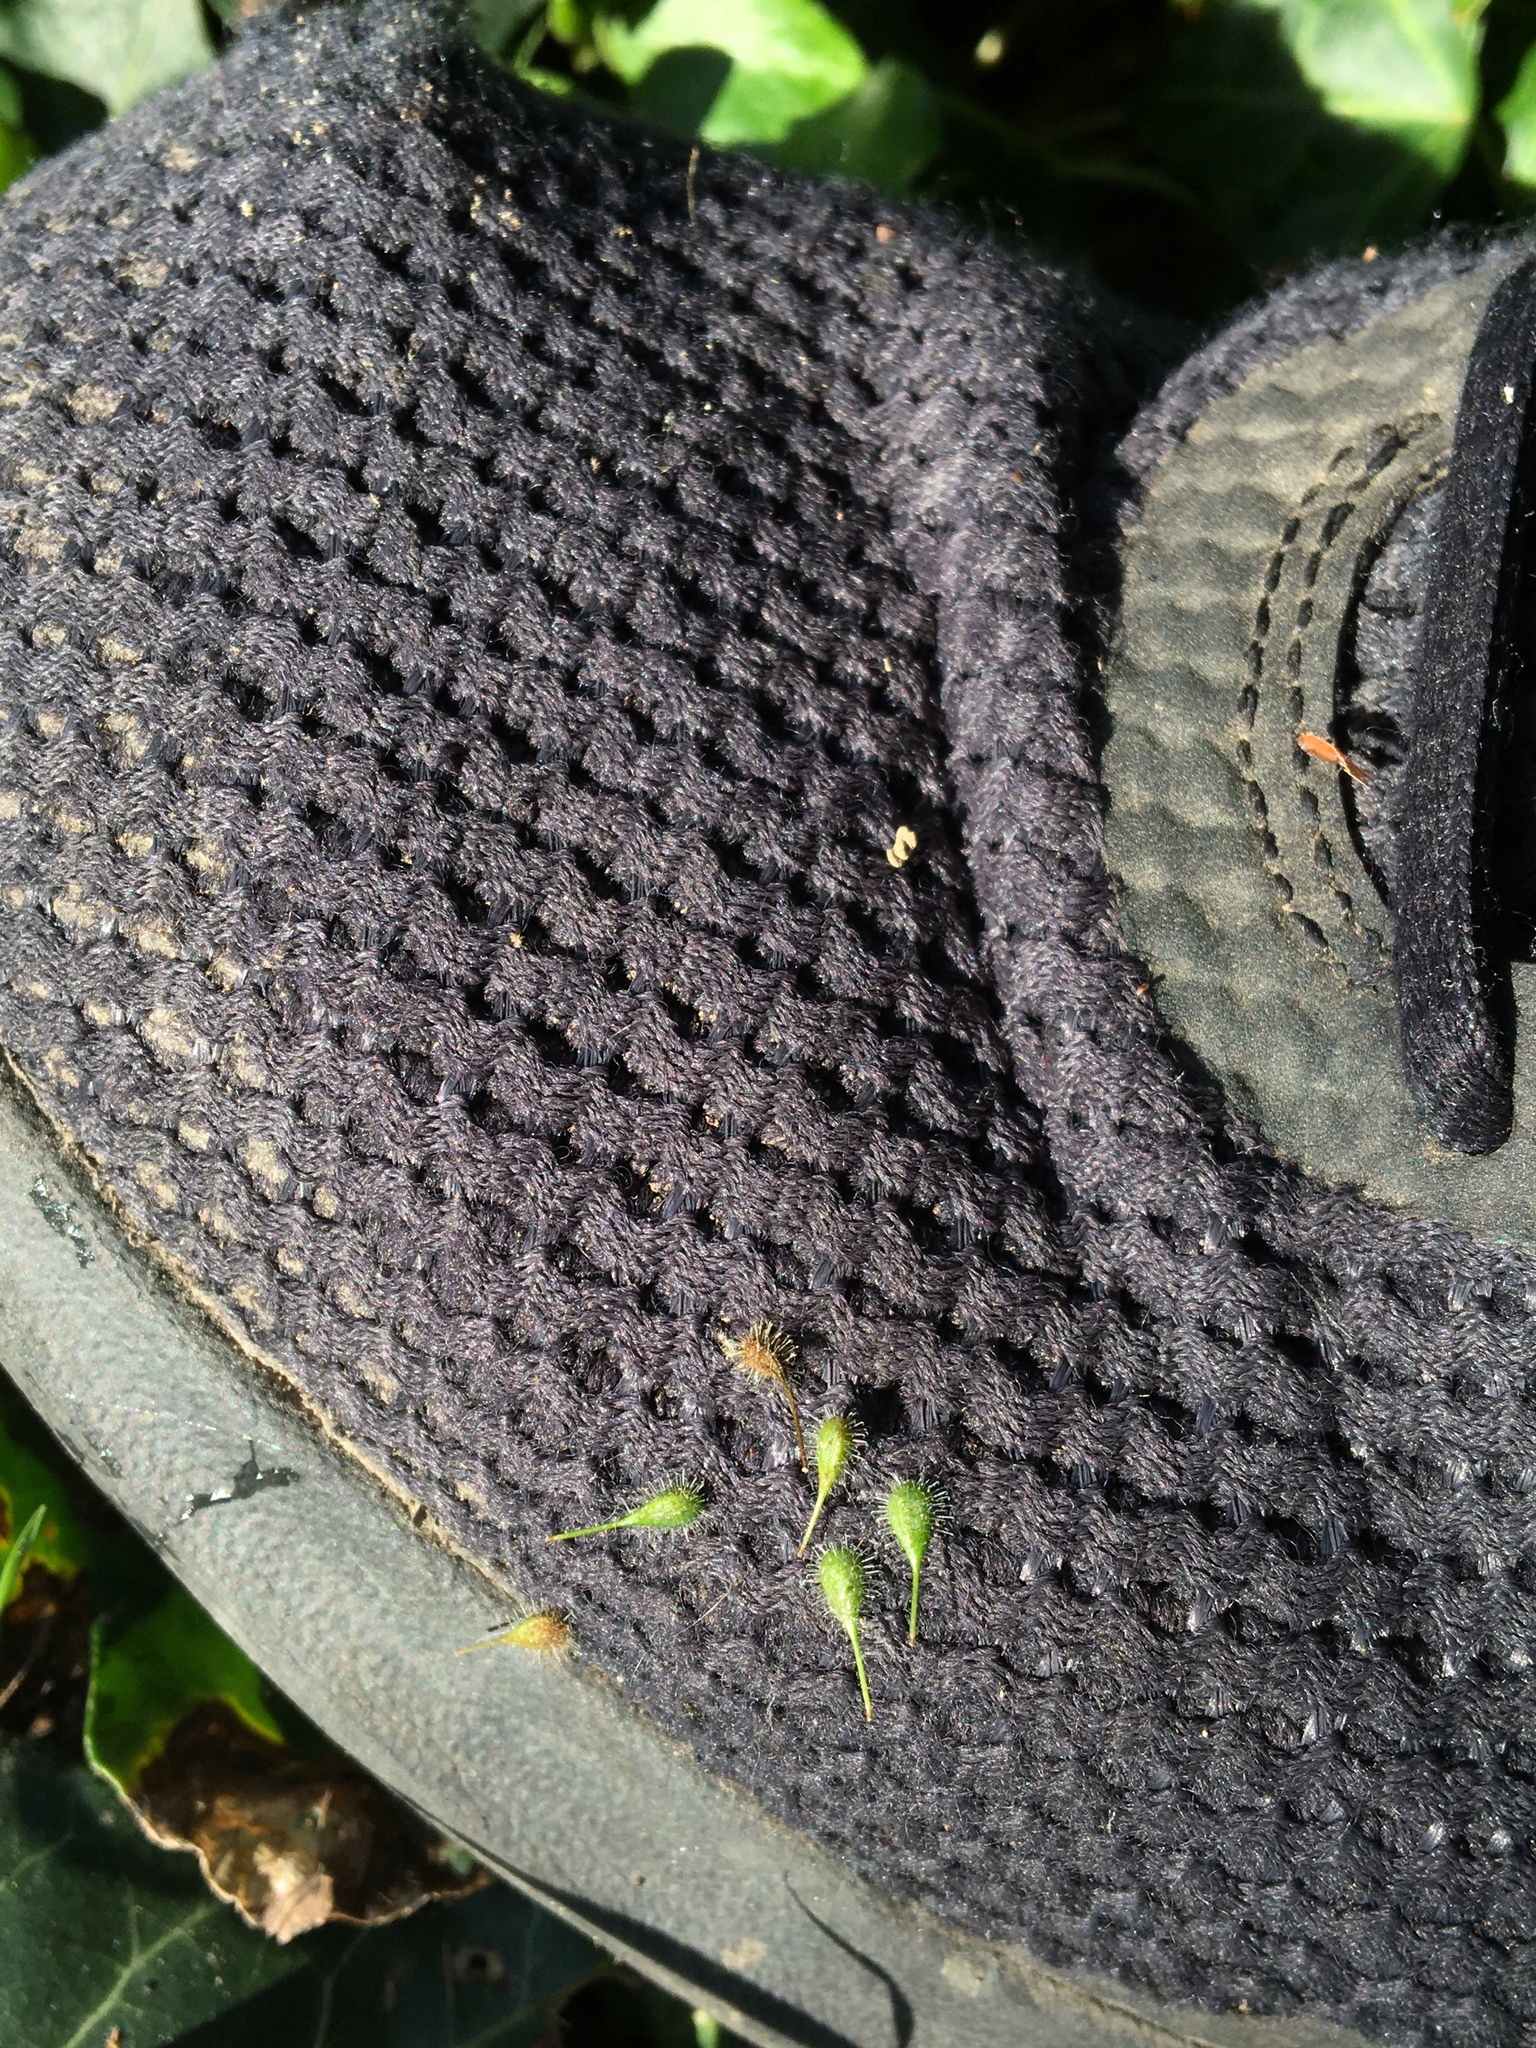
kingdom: Plantae
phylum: Tracheophyta
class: Magnoliopsida
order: Myrtales
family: Onagraceae
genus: Circaea
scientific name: Circaea lutetiana
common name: Enchanter's-nightshade
